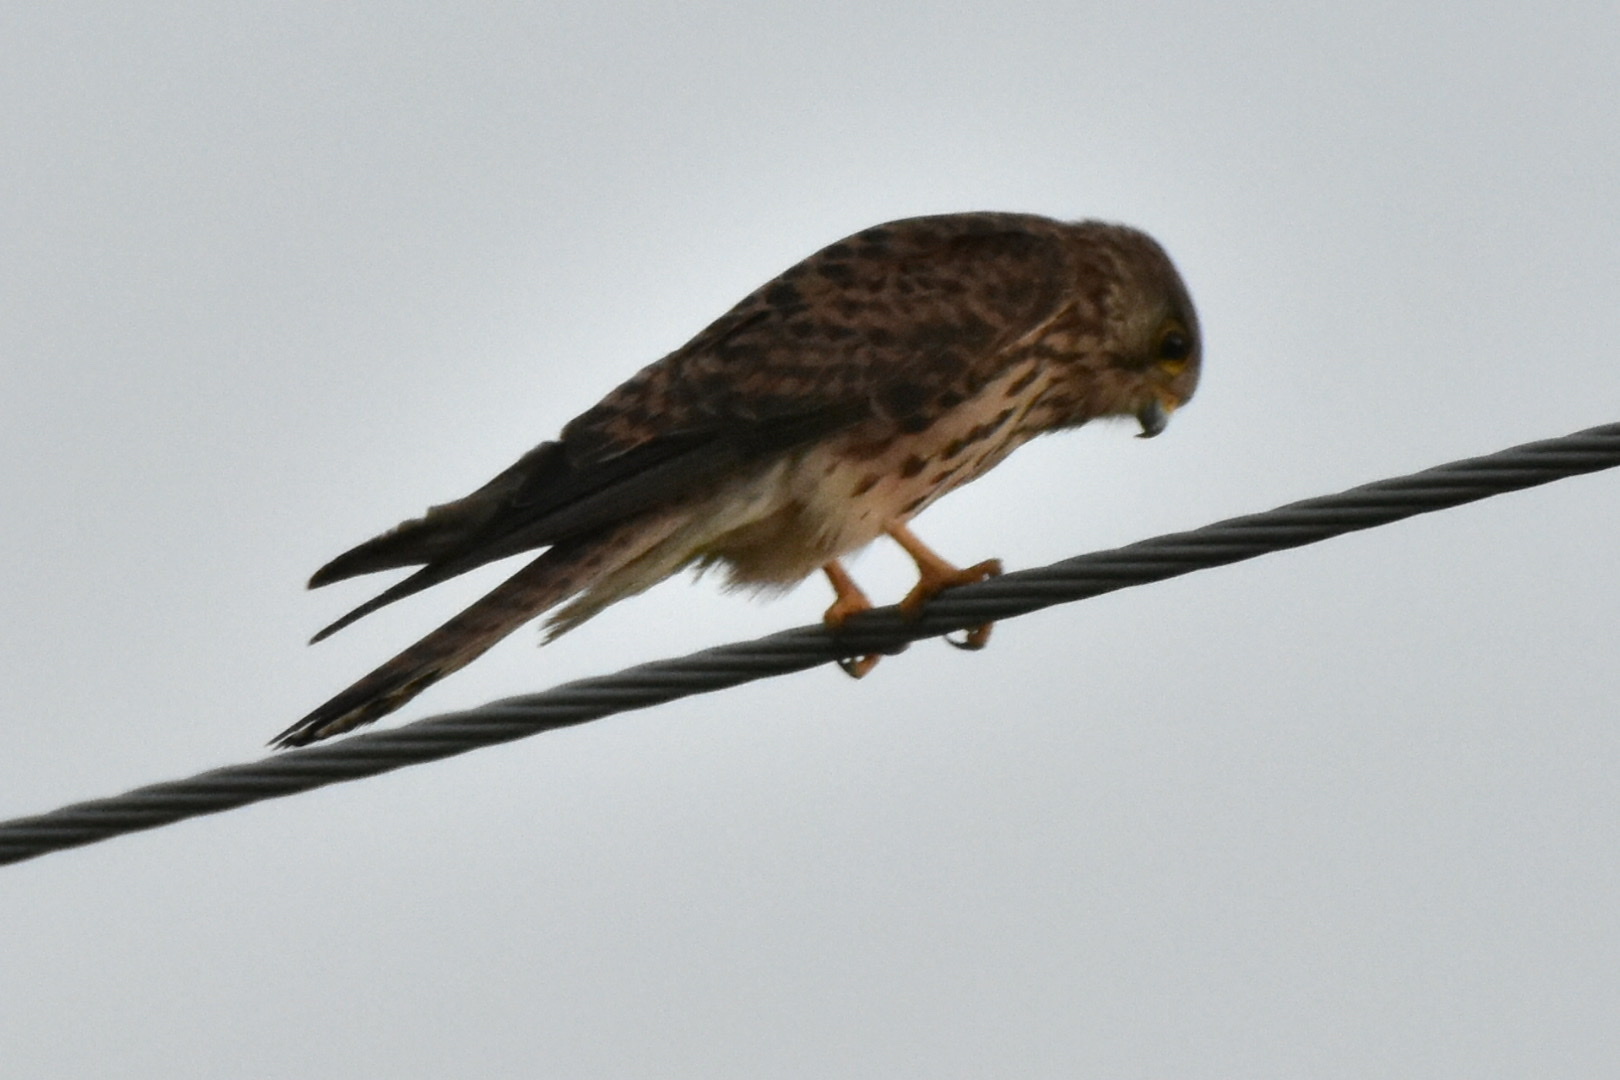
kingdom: Animalia
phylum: Chordata
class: Aves
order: Falconiformes
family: Falconidae
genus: Falco
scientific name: Falco tinnunculus
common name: Common kestrel
